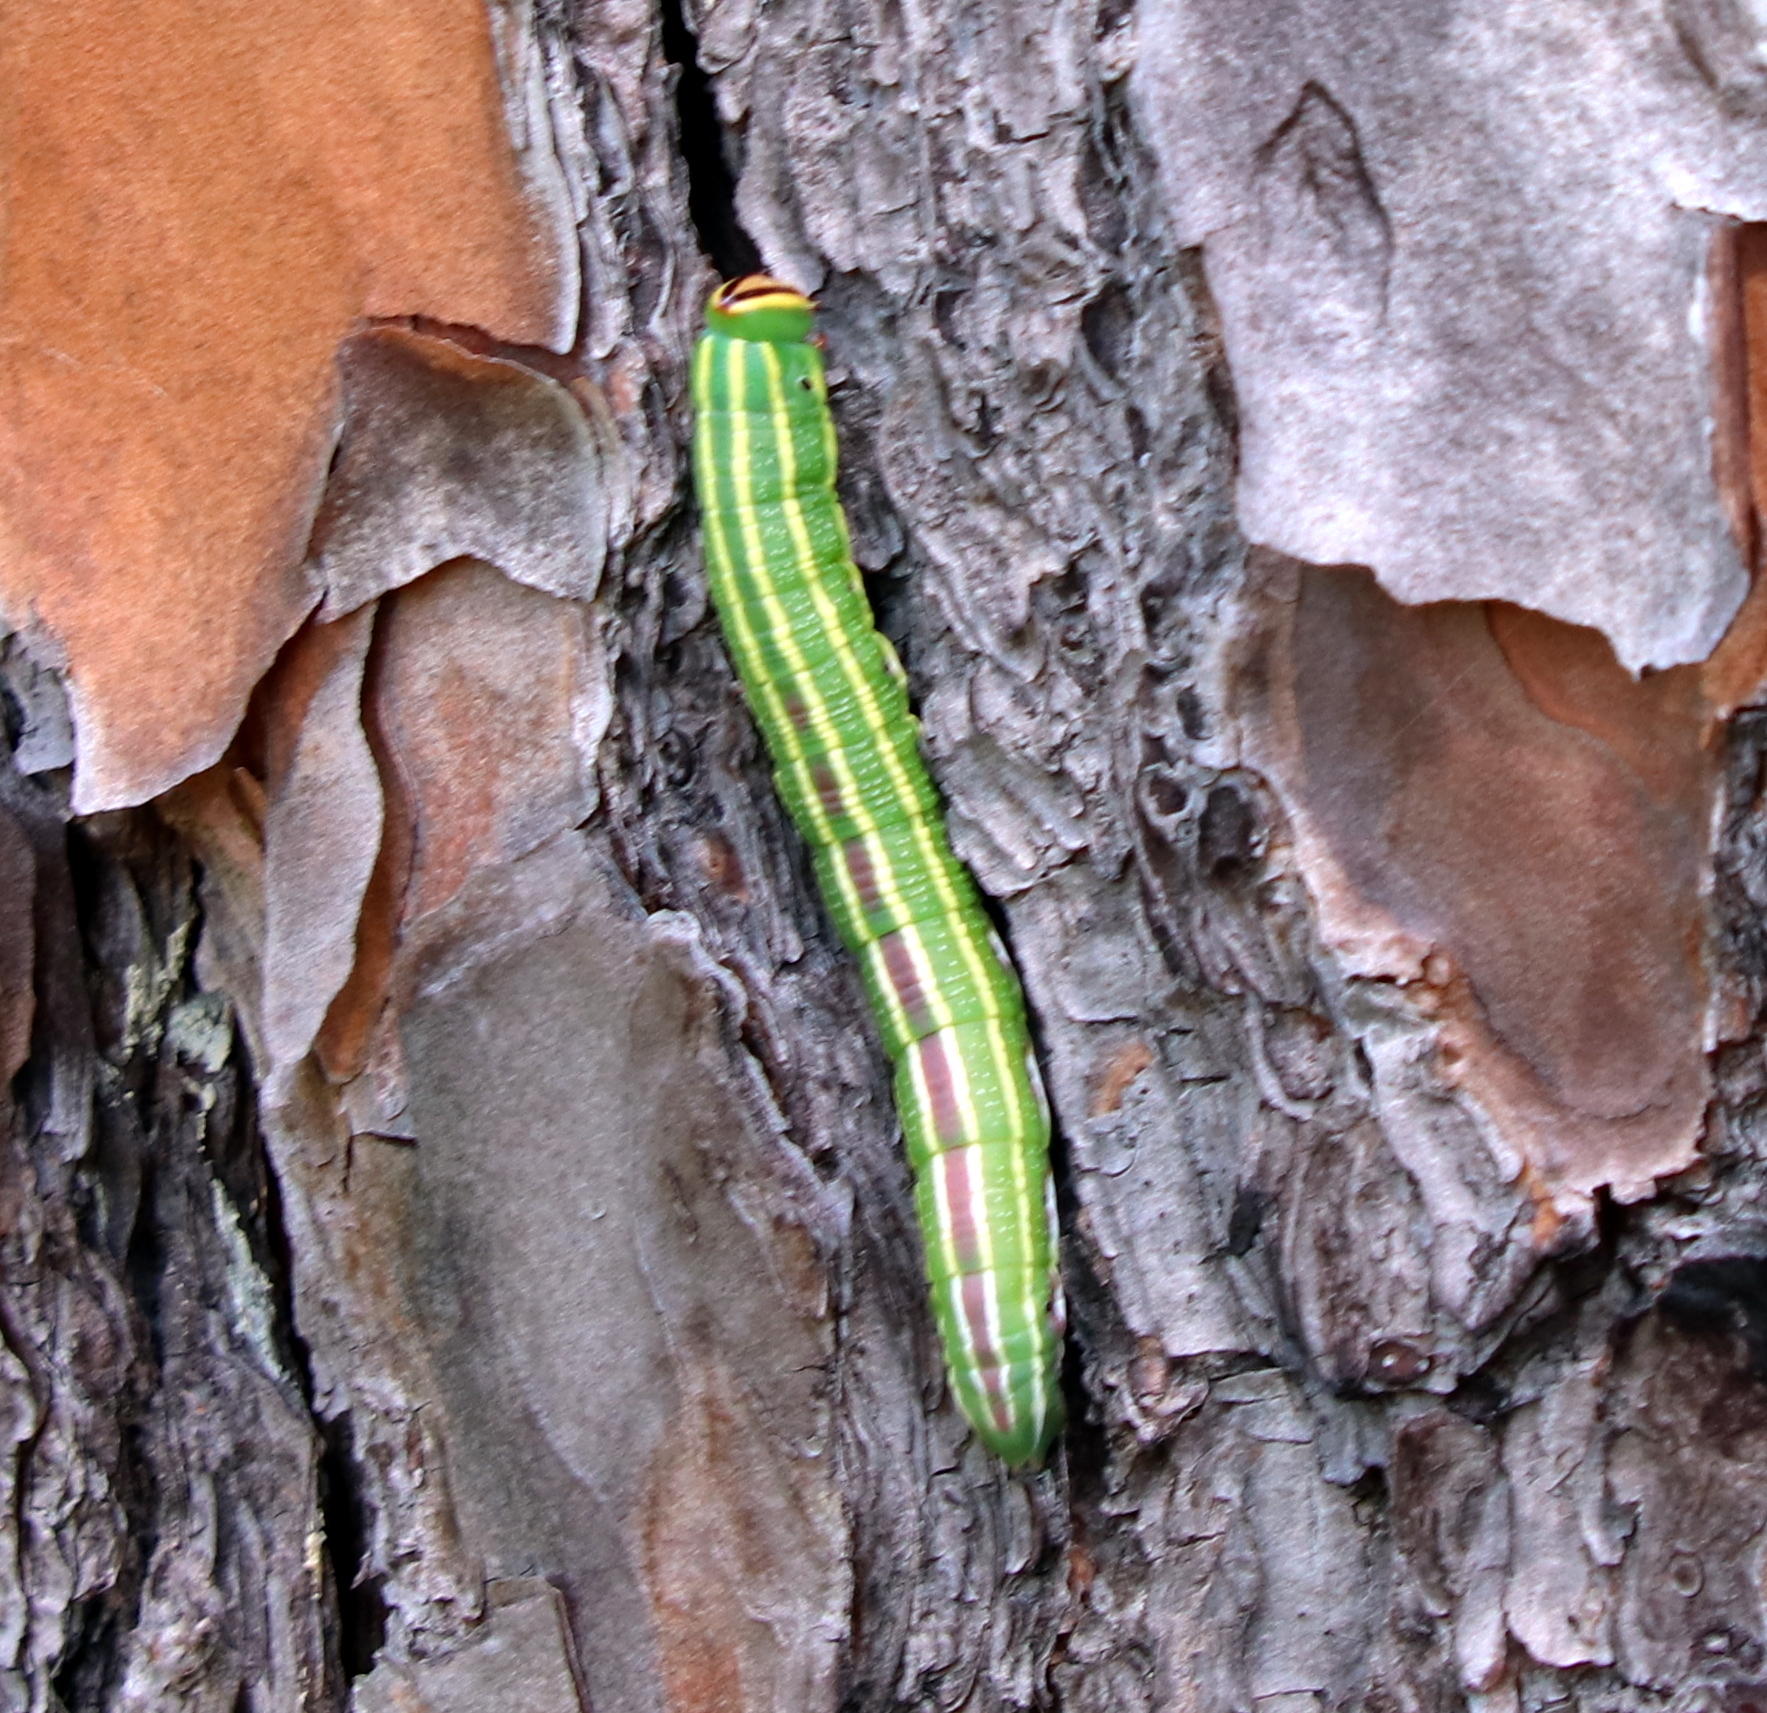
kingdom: Animalia
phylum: Arthropoda
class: Insecta
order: Lepidoptera
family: Sphingidae
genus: Lapara
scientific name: Lapara coniferarum
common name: Southern pine sphinx
